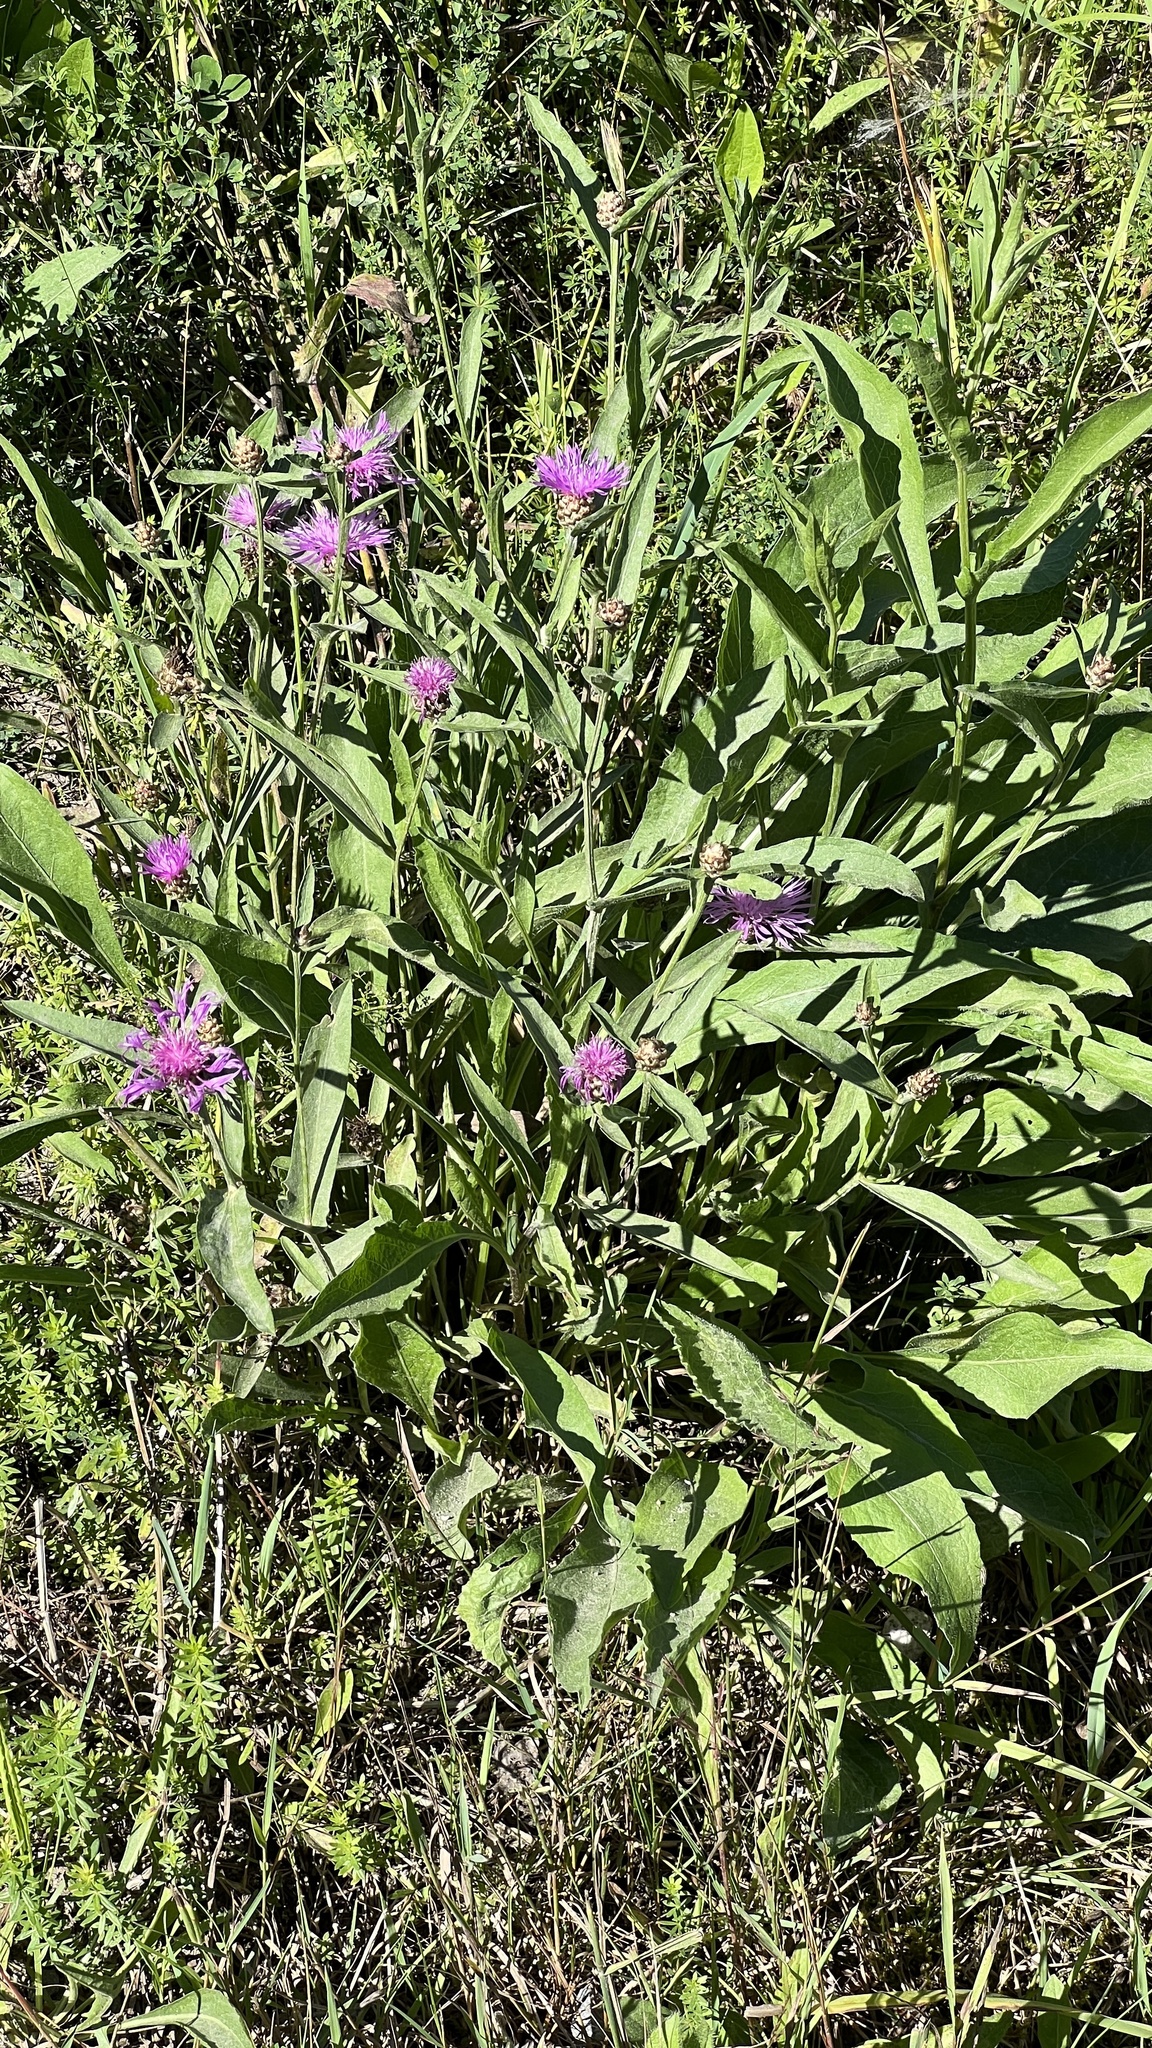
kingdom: Plantae
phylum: Tracheophyta
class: Magnoliopsida
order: Asterales
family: Asteraceae
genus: Centaurea
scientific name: Centaurea jacea
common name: Brown knapweed
